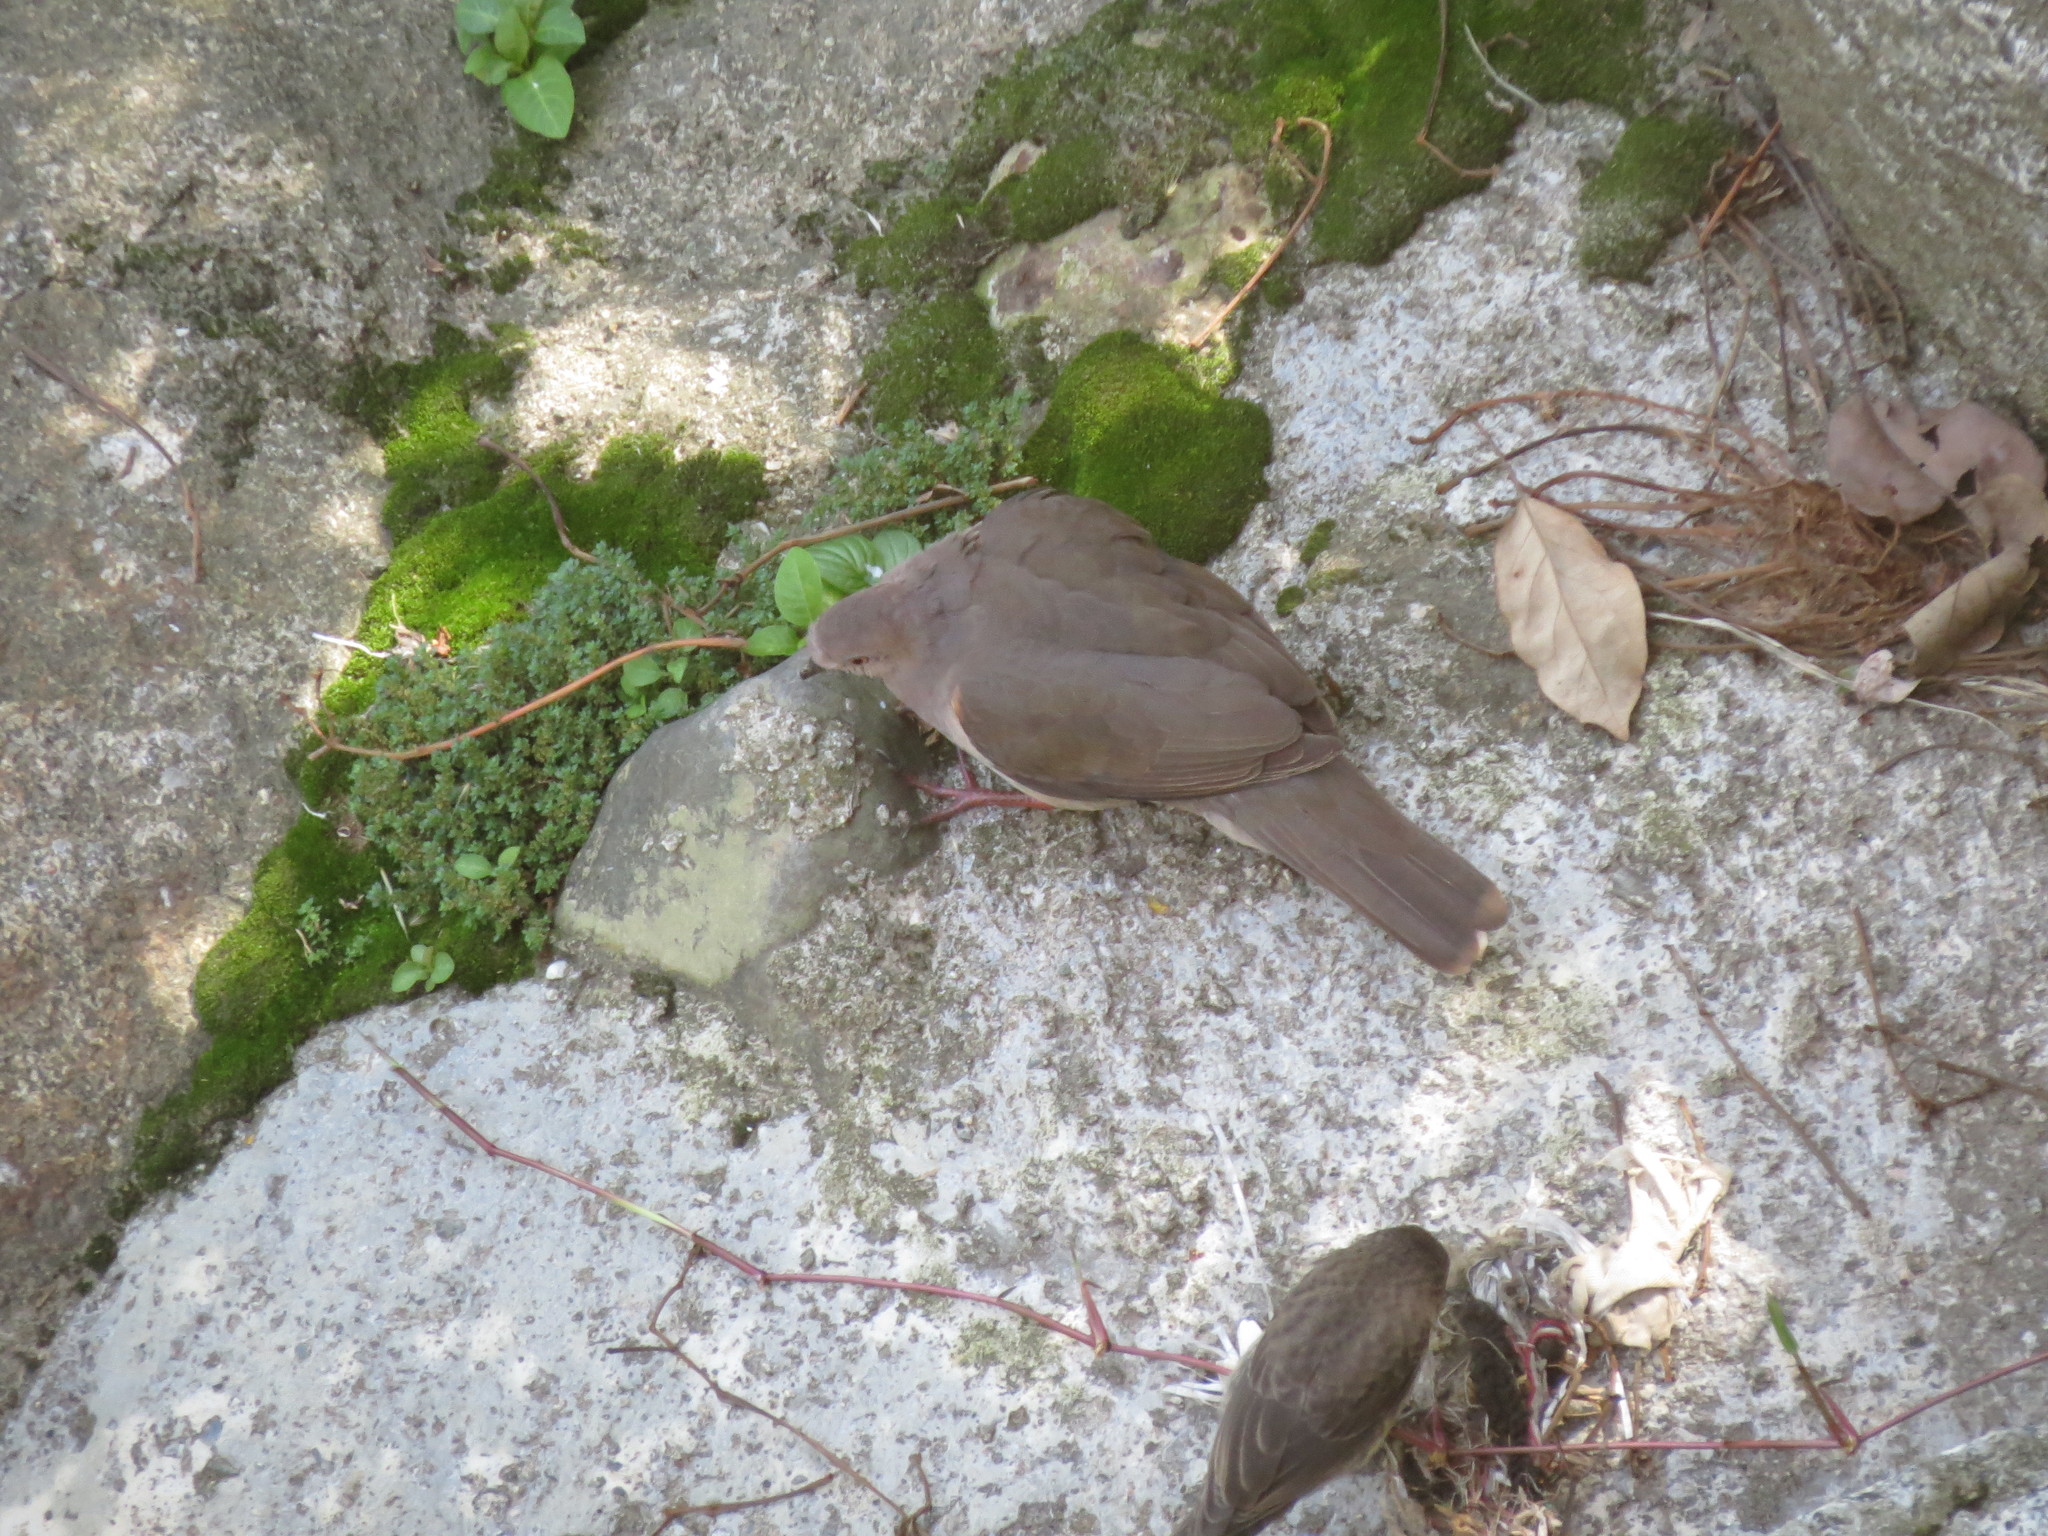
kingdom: Animalia
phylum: Chordata
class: Aves
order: Columbiformes
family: Columbidae
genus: Leptotila
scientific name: Leptotila verreauxi
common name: White-tipped dove
